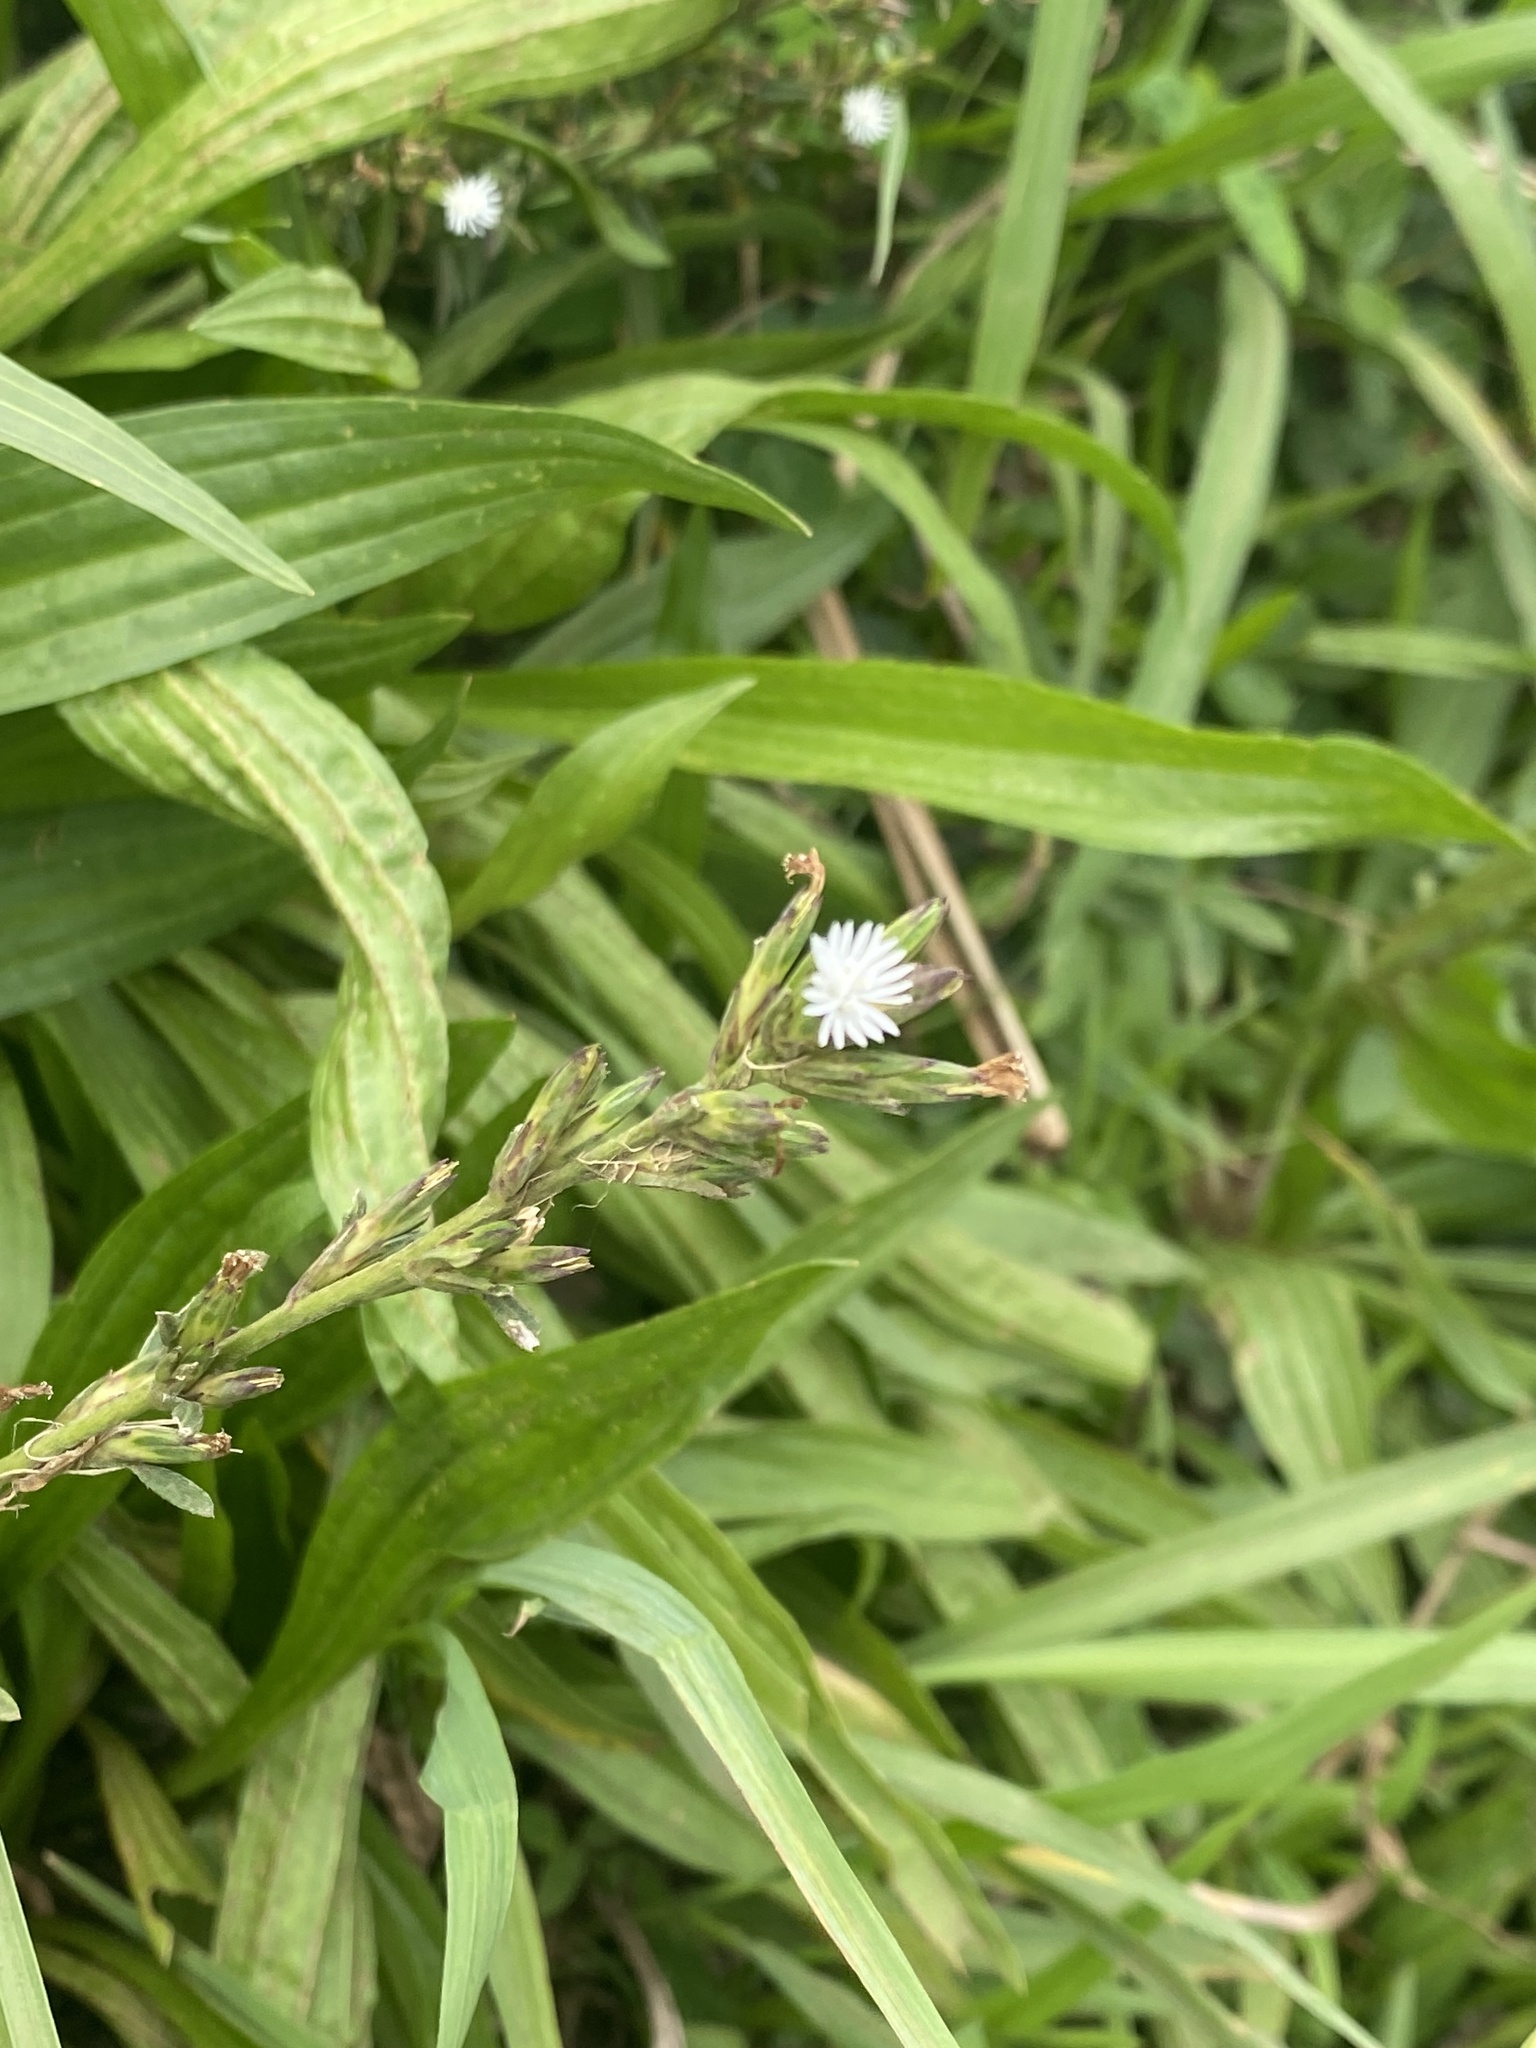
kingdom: Plantae
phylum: Tracheophyta
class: Magnoliopsida
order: Asterales
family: Asteraceae
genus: Pseudelephantopus
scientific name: Pseudelephantopus spicatus
